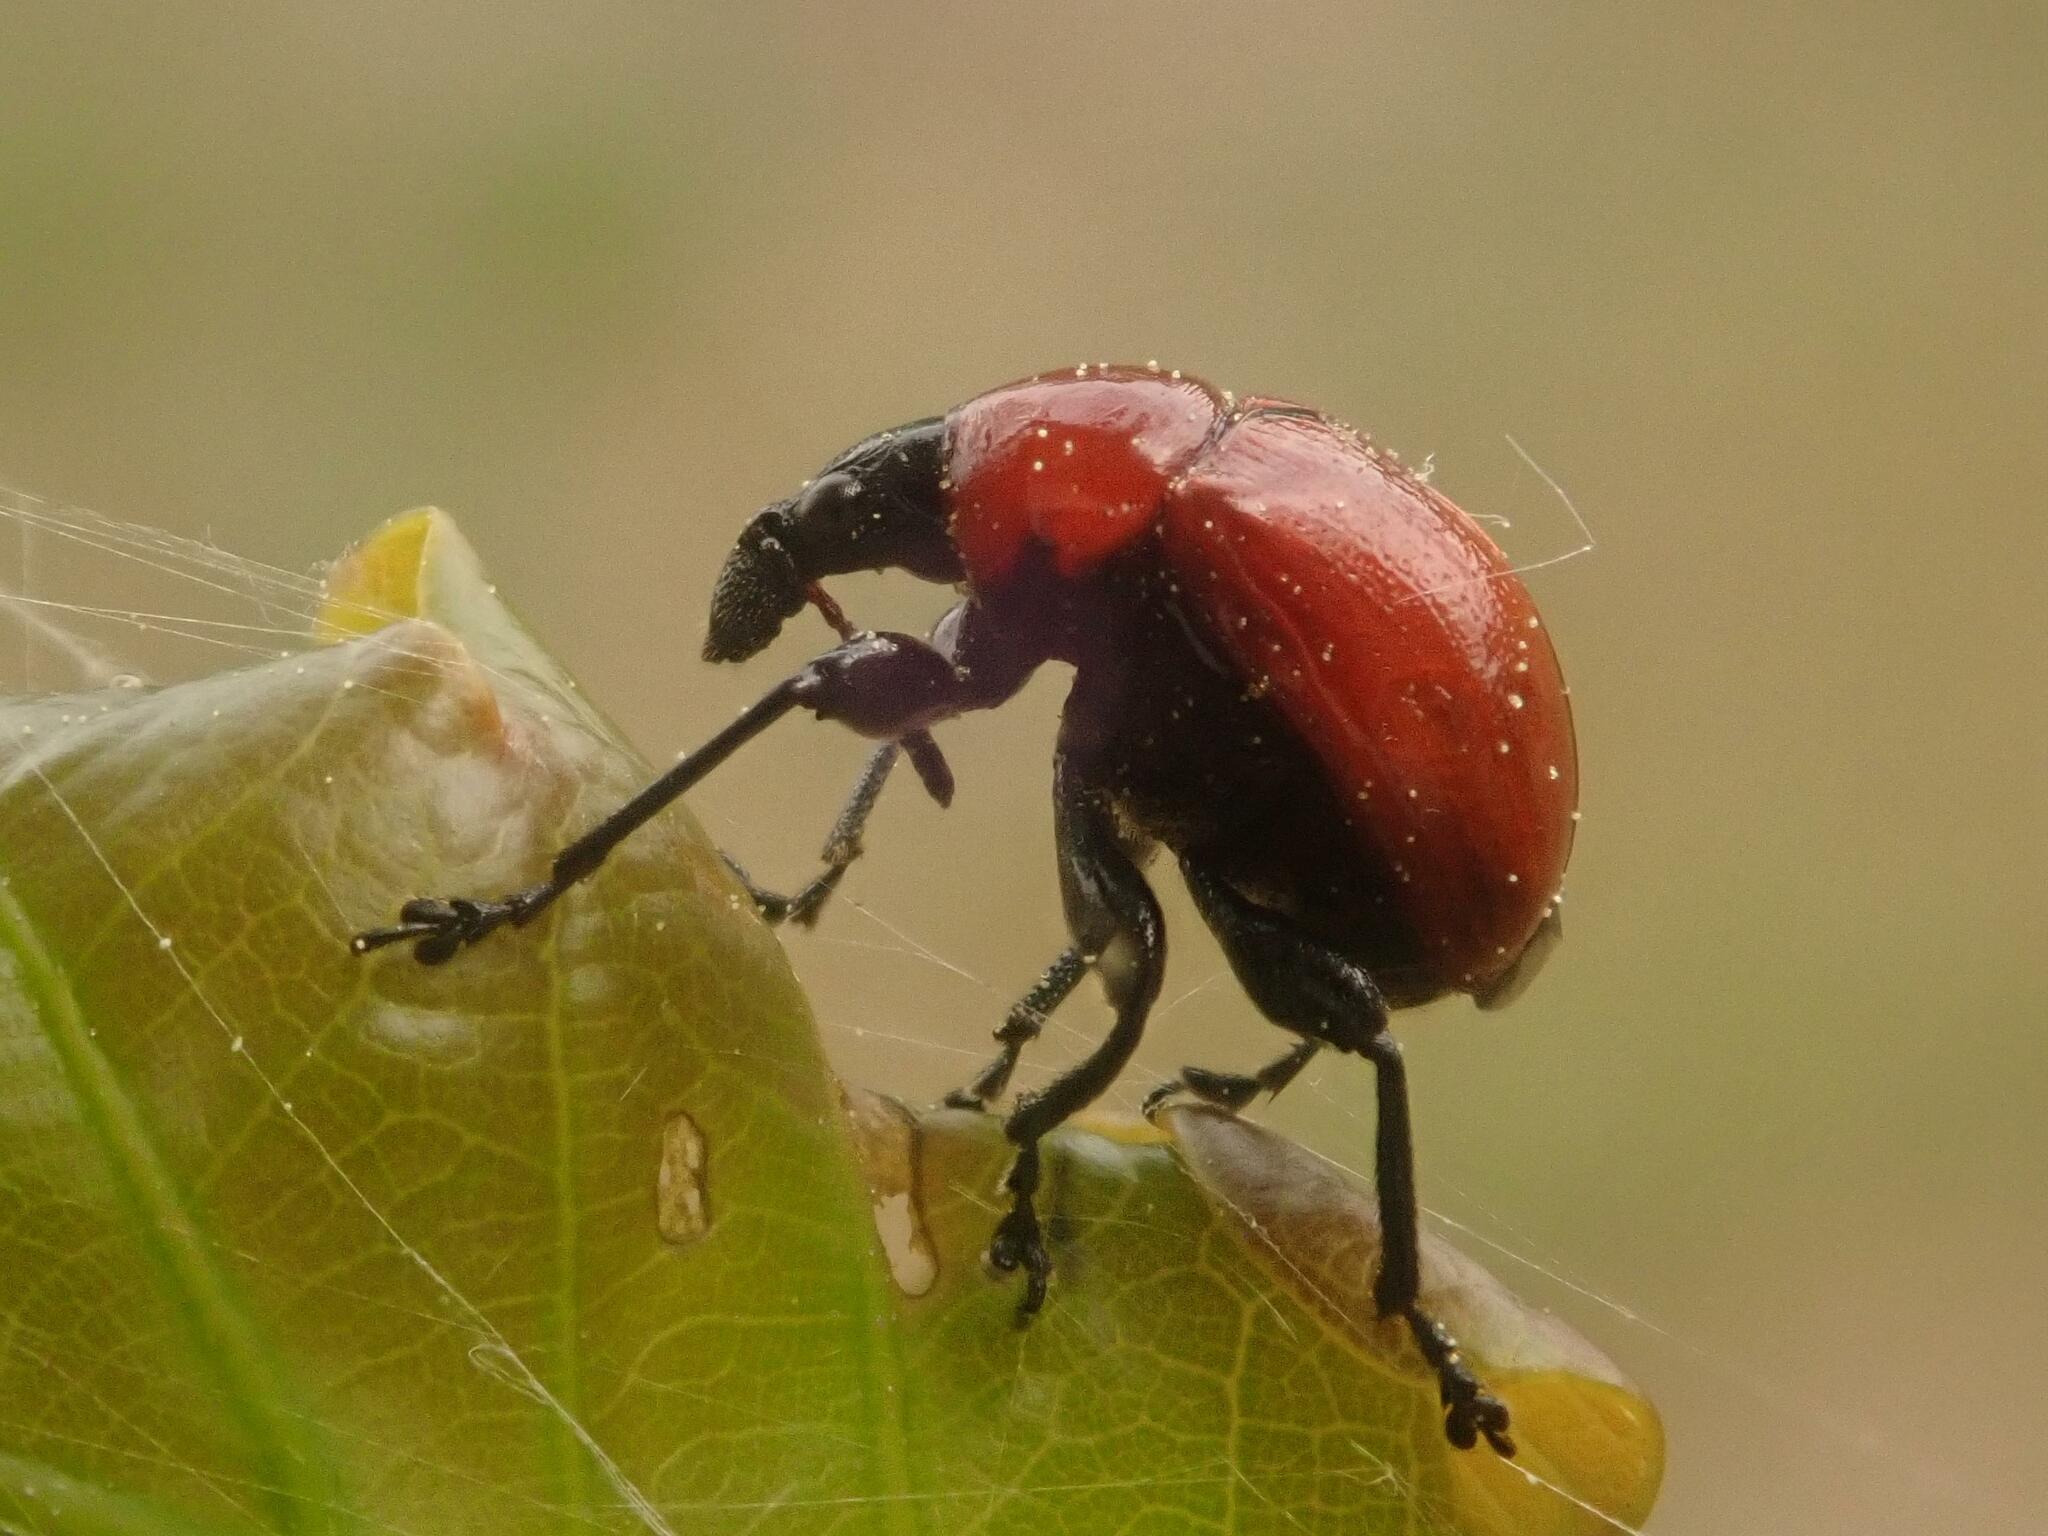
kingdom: Animalia
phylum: Arthropoda
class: Insecta
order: Coleoptera
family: Attelabidae
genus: Attelabus
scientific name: Attelabus nitens
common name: Oak leaf-roller
